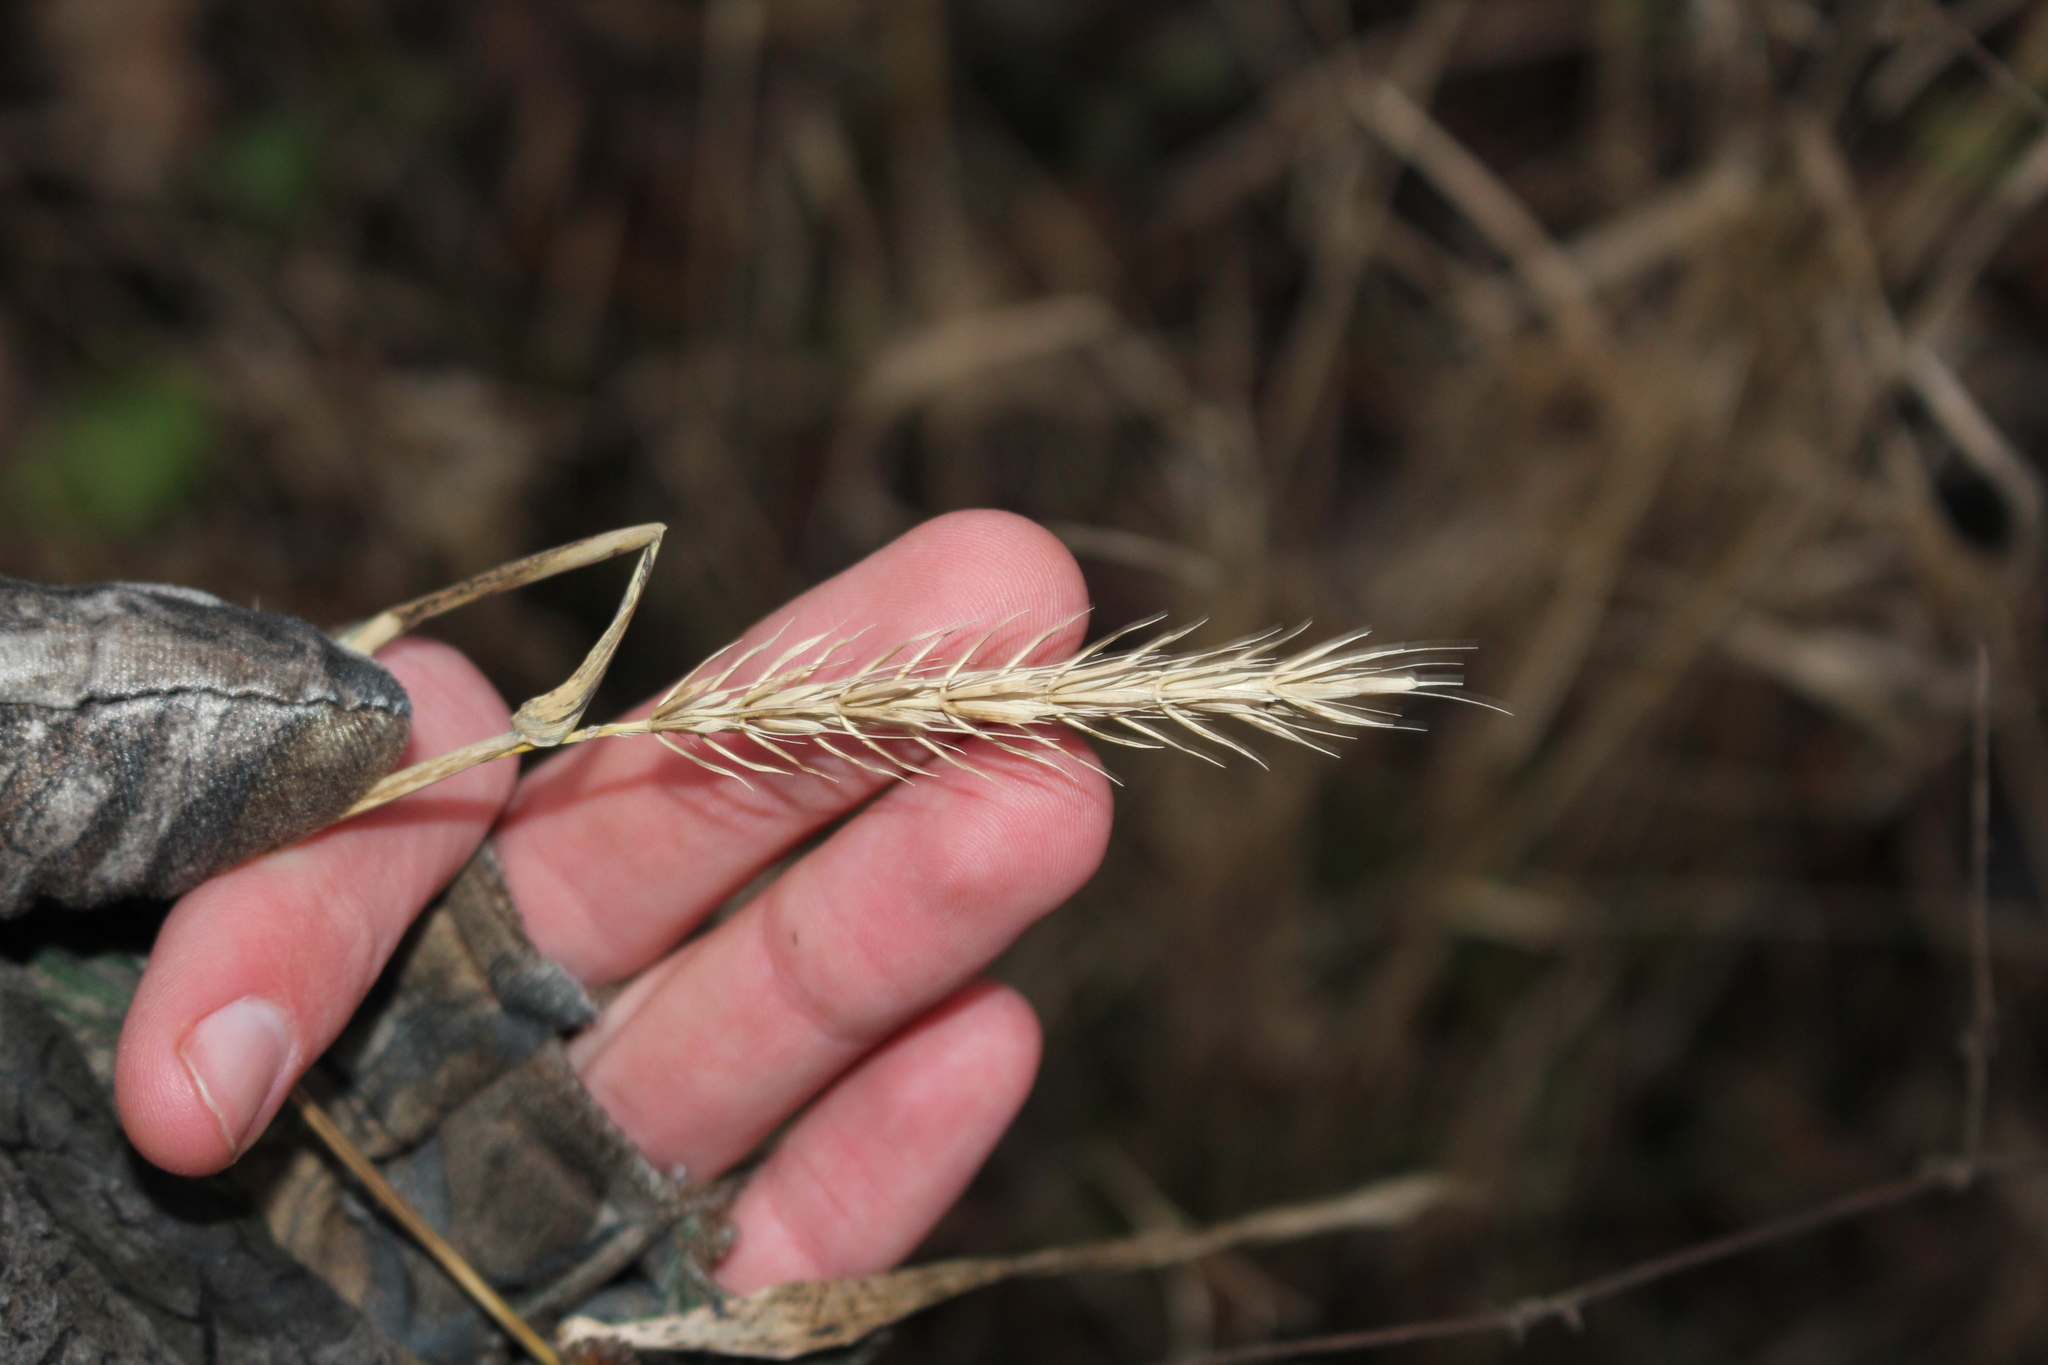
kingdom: Plantae
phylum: Tracheophyta
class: Liliopsida
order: Poales
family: Poaceae
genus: Elymus
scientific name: Elymus virginicus
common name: Common eastern wildrye
